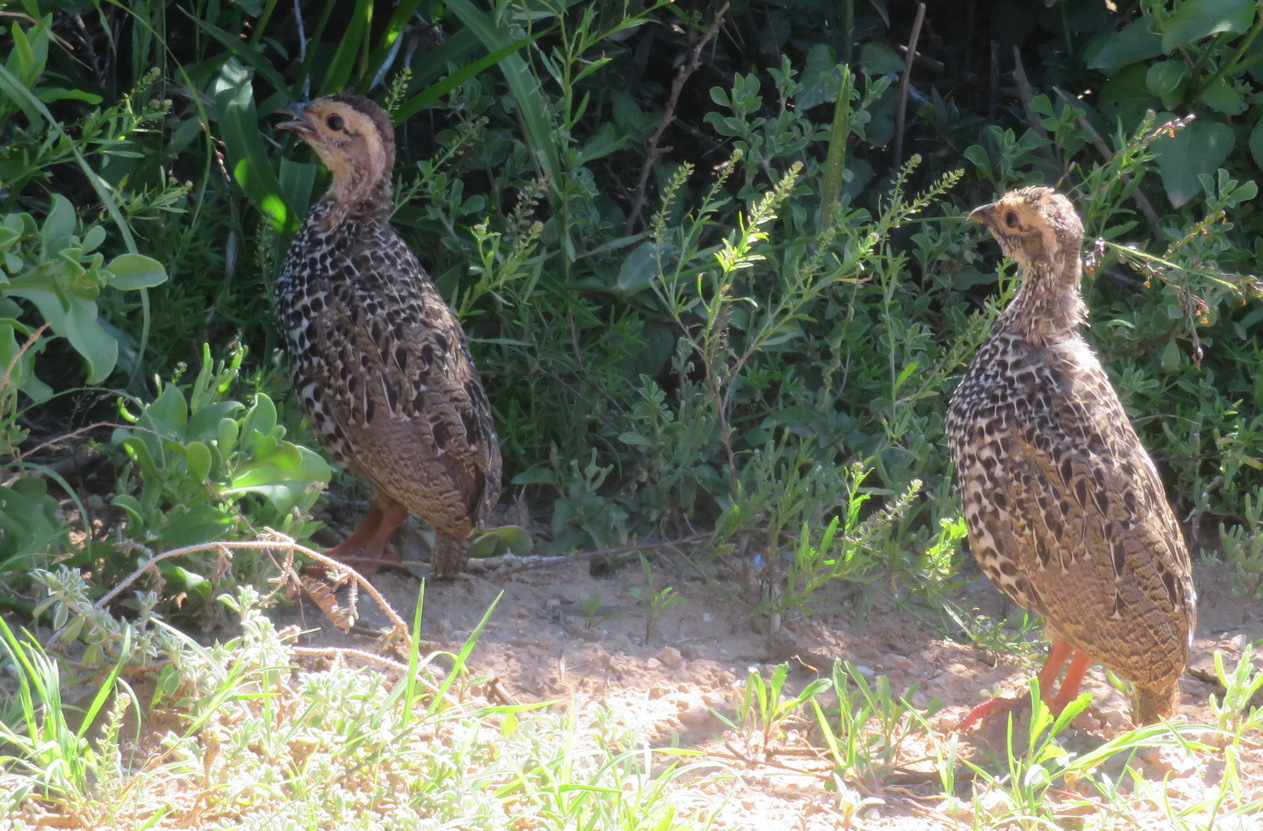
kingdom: Animalia
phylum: Chordata
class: Aves
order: Galliformes
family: Phasianidae
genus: Pternistis
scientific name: Pternistis afer
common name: Red-necked spurfowl
